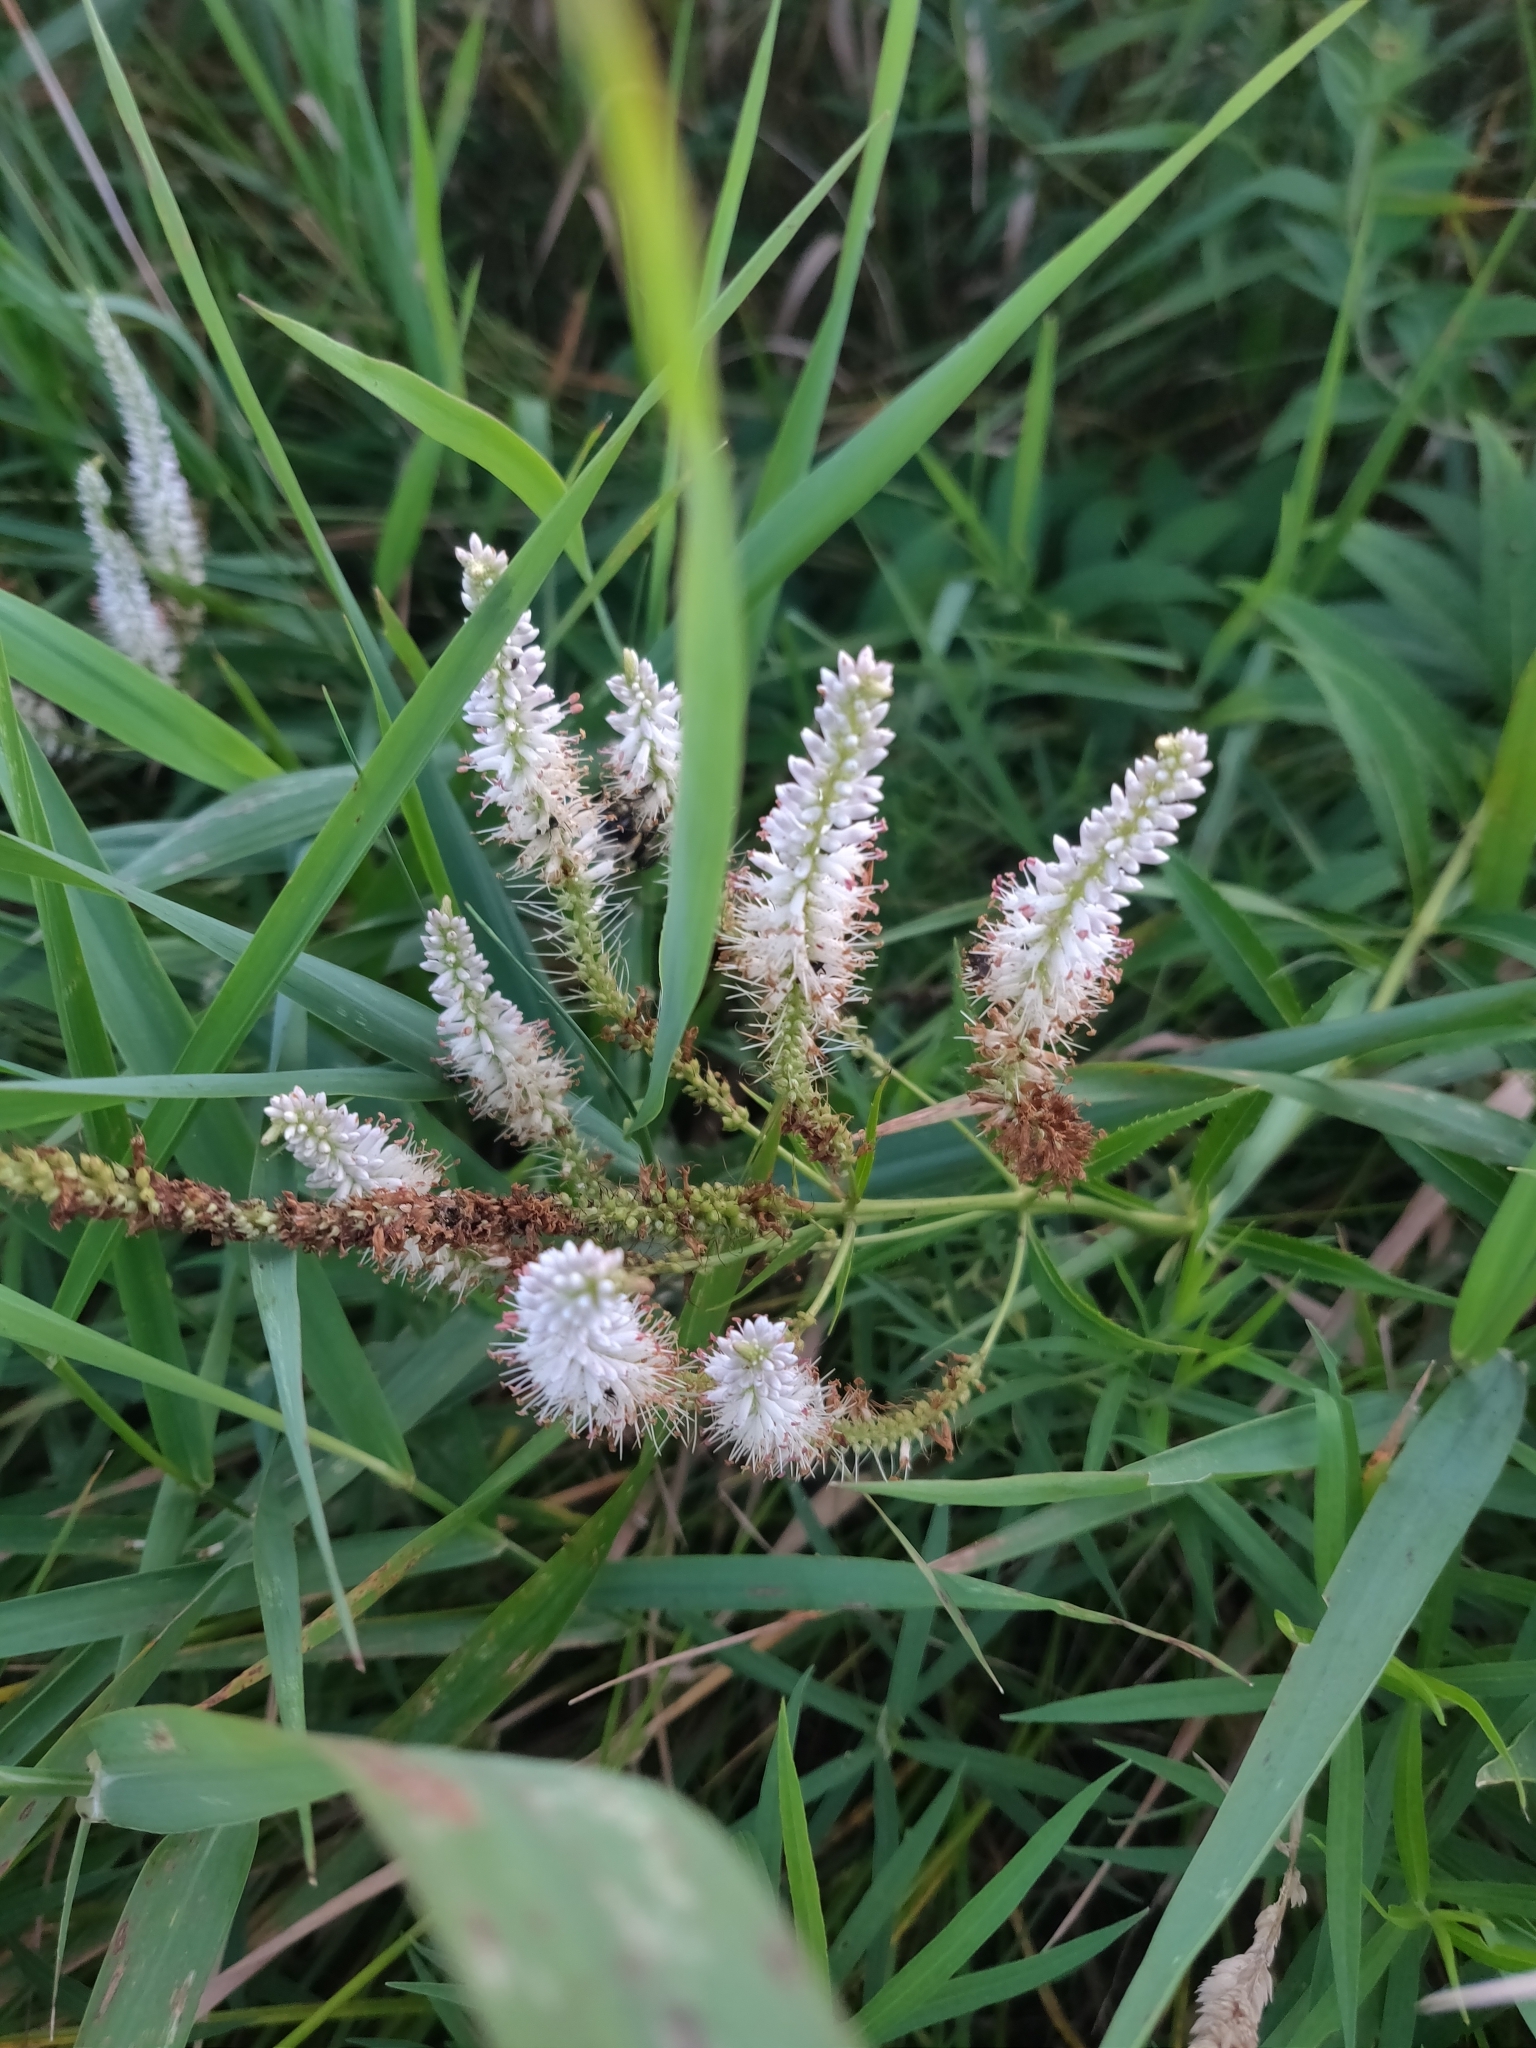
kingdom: Plantae
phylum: Tracheophyta
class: Magnoliopsida
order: Lamiales
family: Plantaginaceae
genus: Veronicastrum
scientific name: Veronicastrum virginicum
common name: Blackroot
